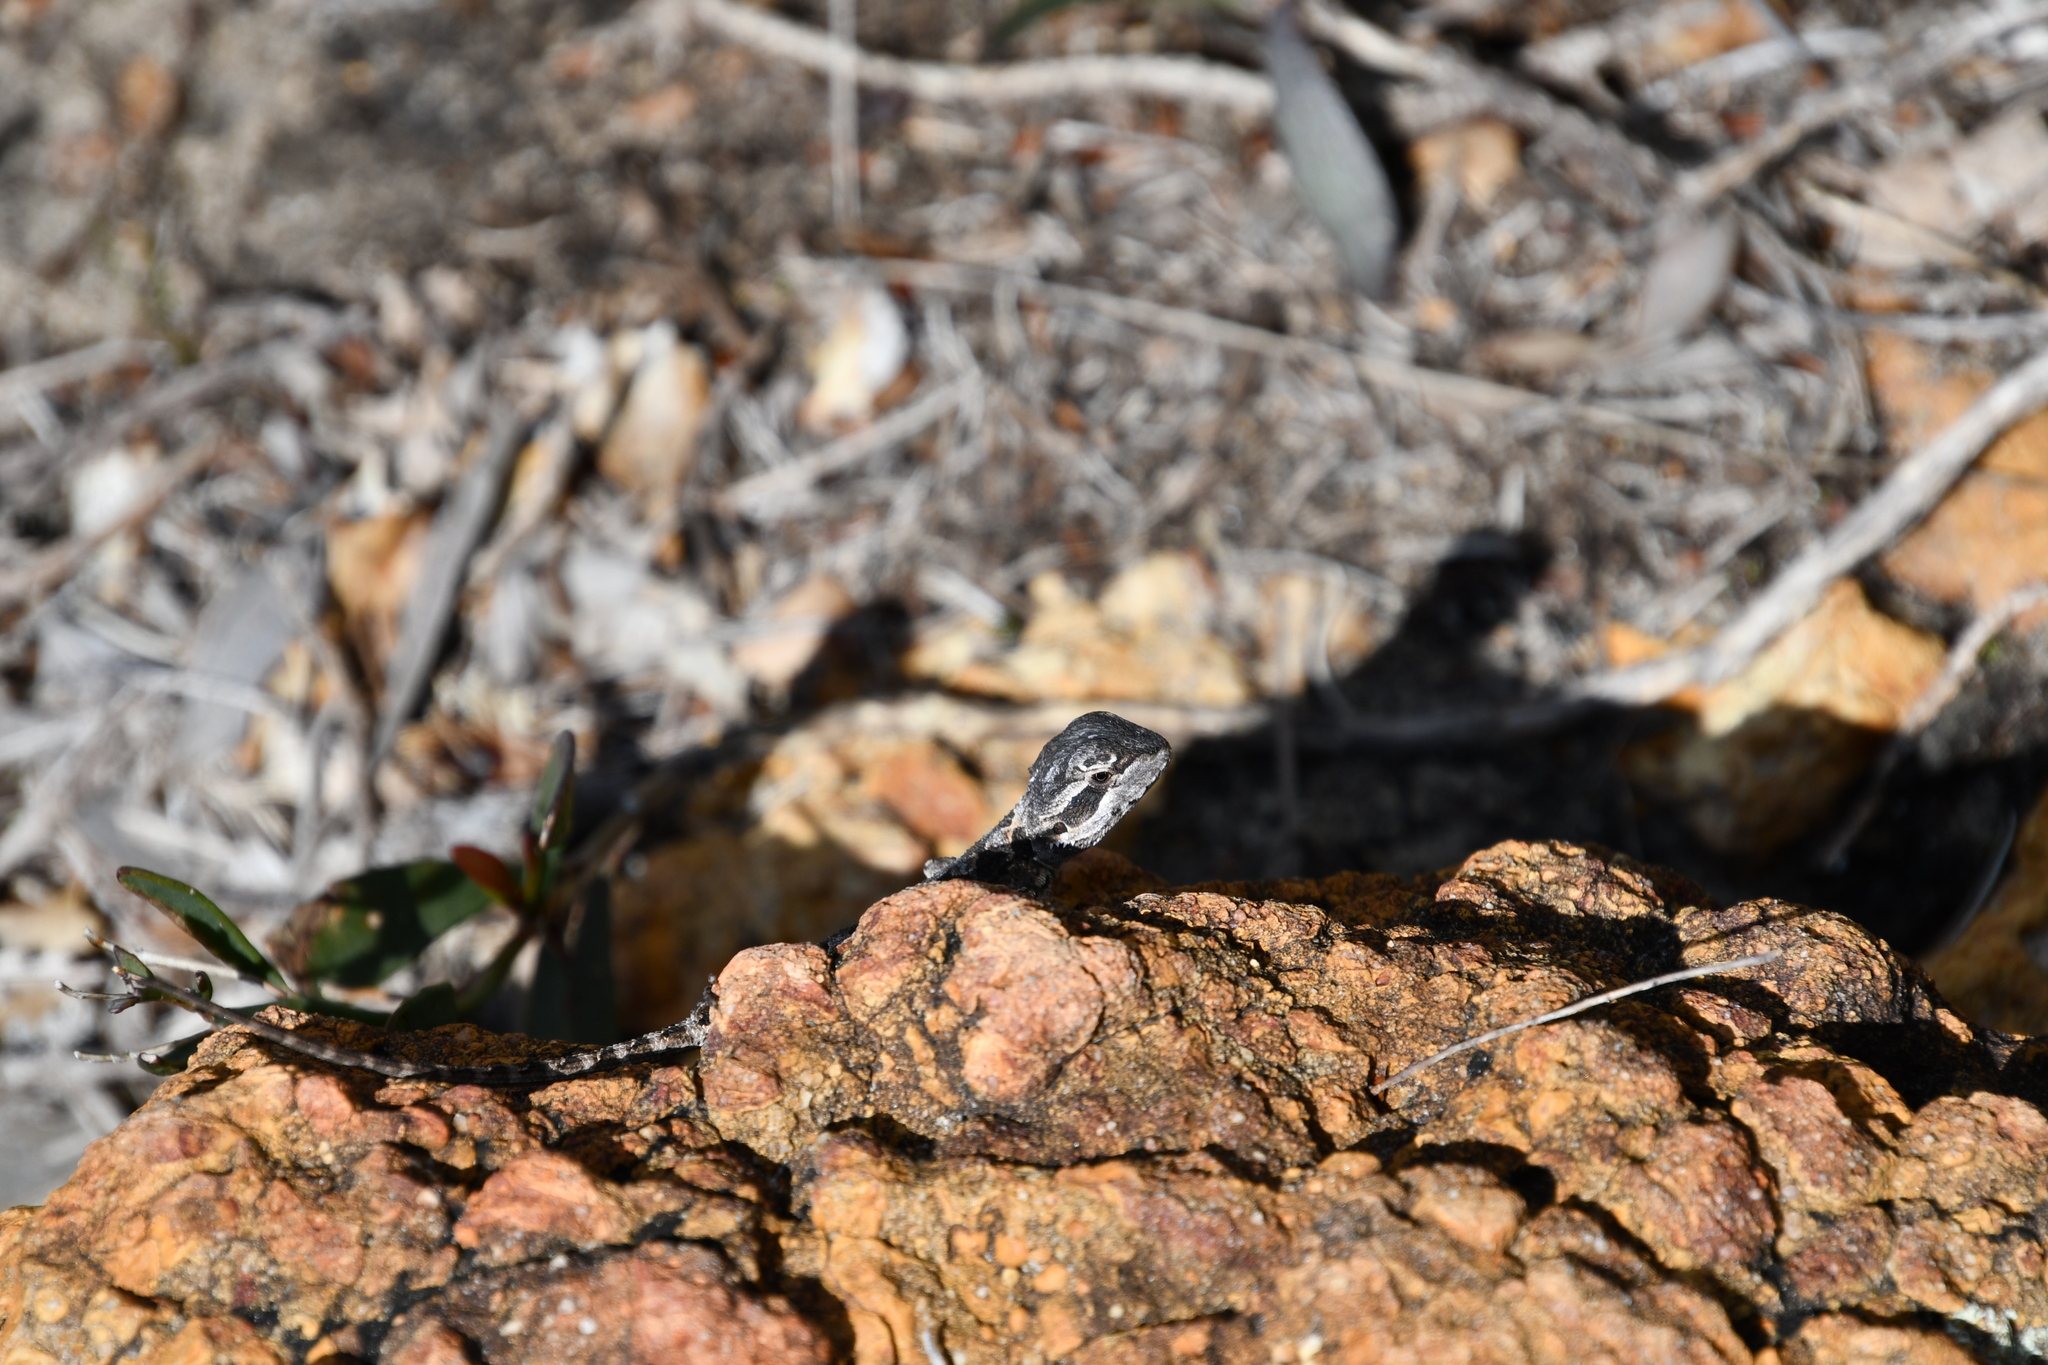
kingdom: Animalia
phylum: Chordata
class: Squamata
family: Agamidae
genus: Pogona
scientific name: Pogona minor
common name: Dwarf bearded dragon
